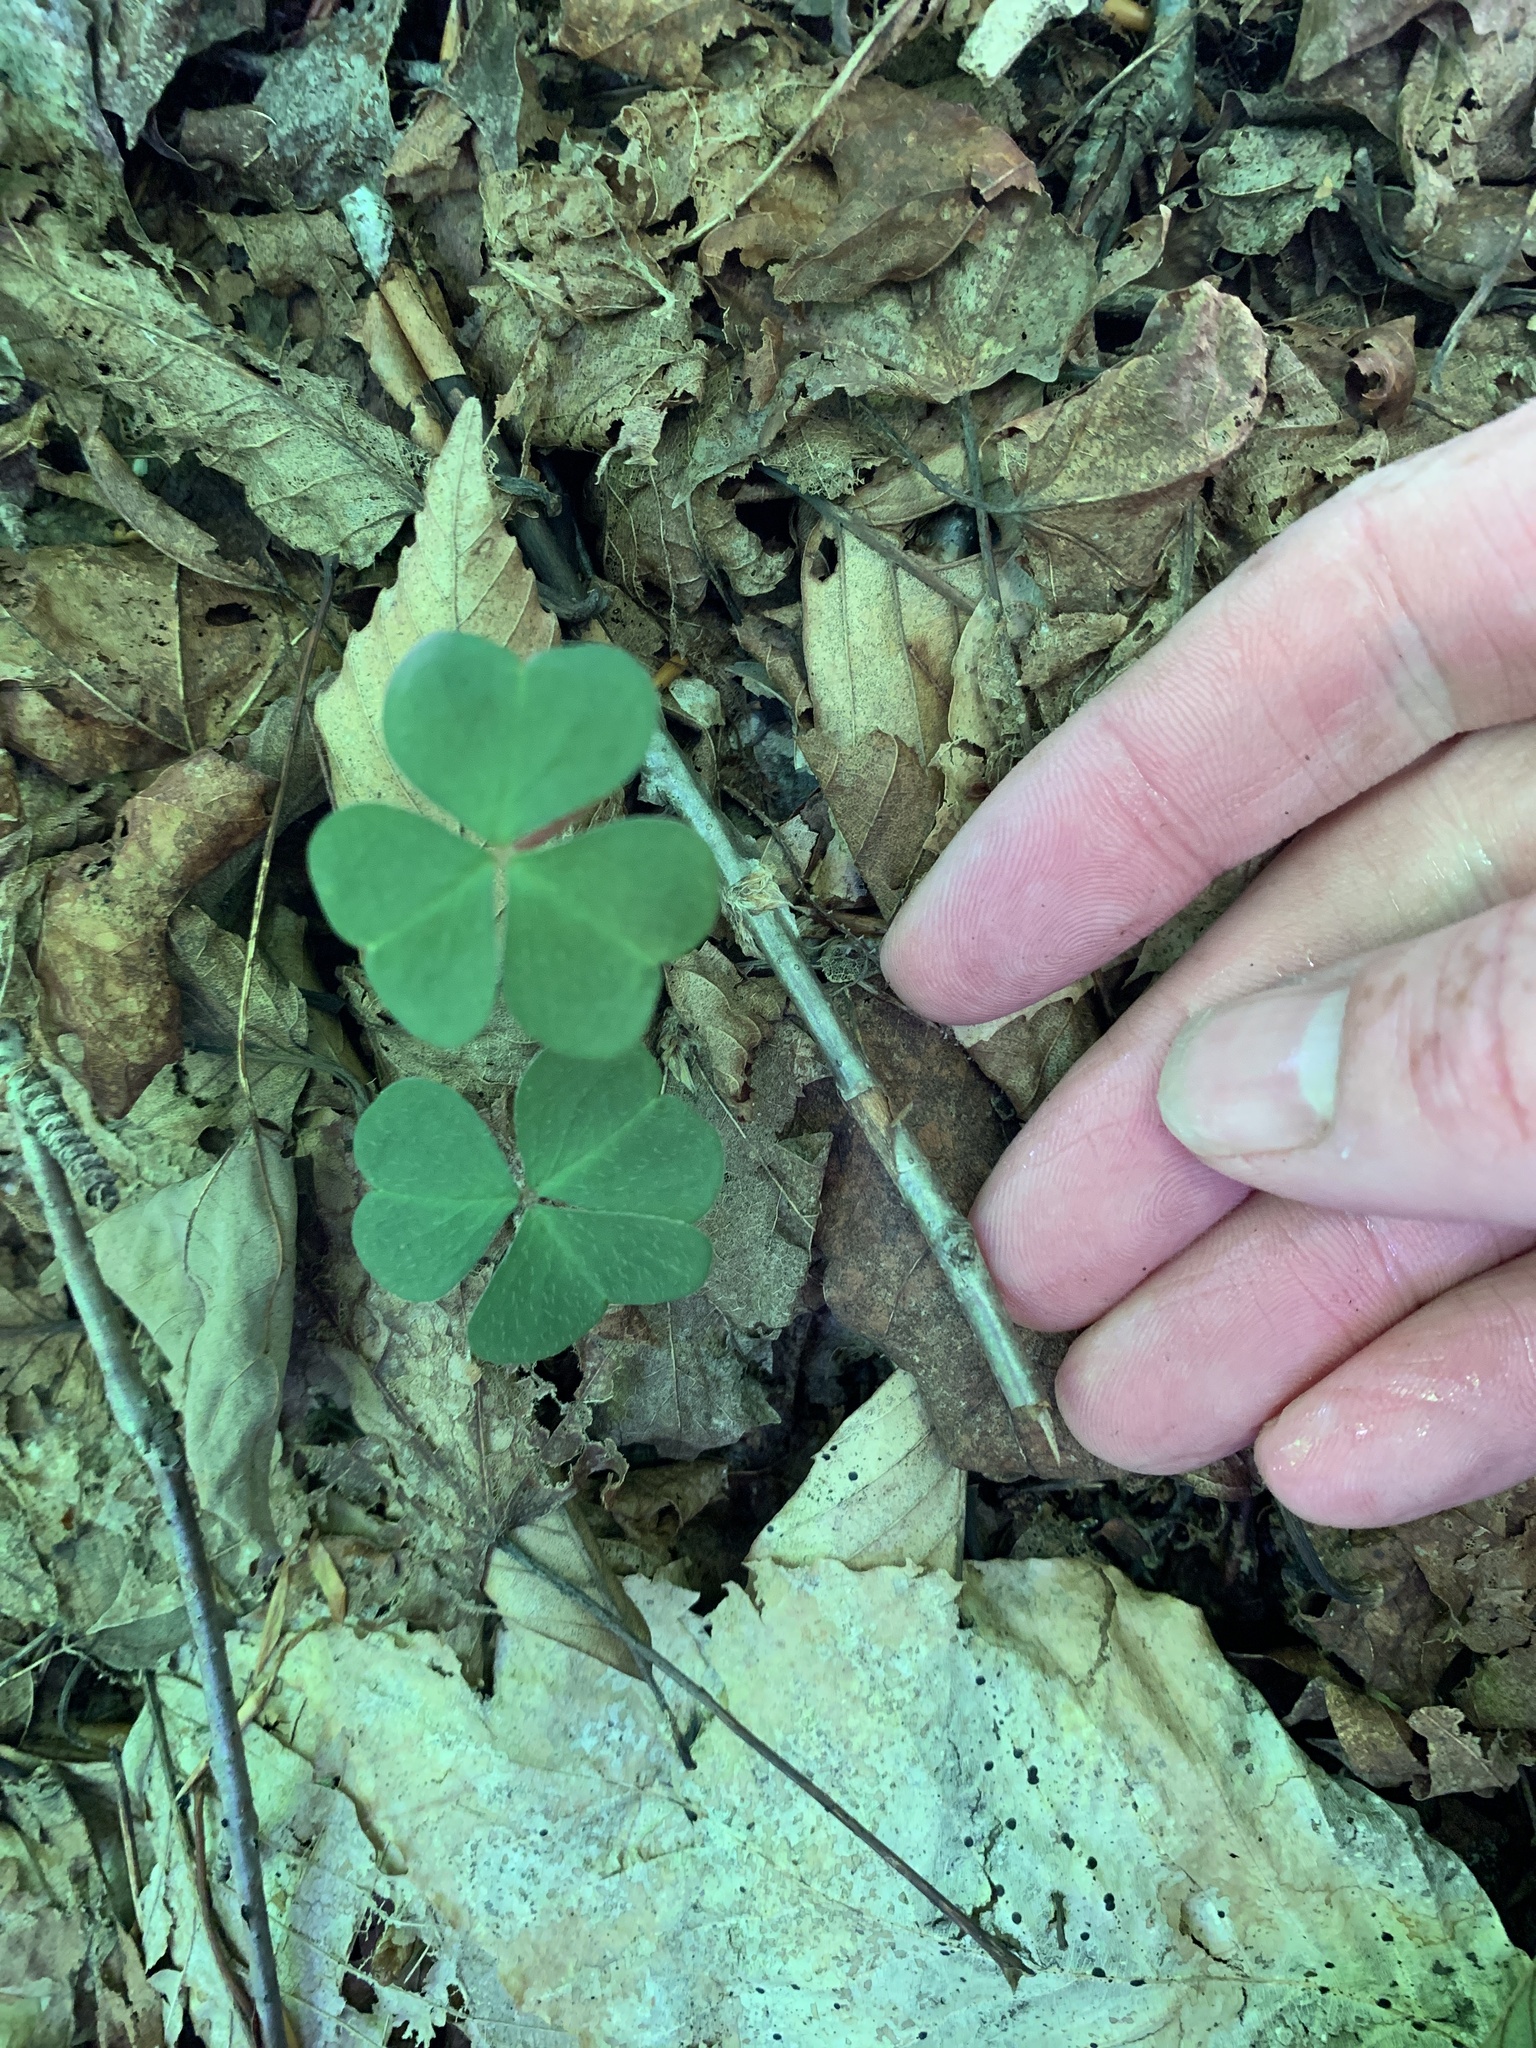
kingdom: Plantae
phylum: Tracheophyta
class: Magnoliopsida
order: Oxalidales
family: Oxalidaceae
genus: Oxalis
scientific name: Oxalis montana
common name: American wood-sorrel
